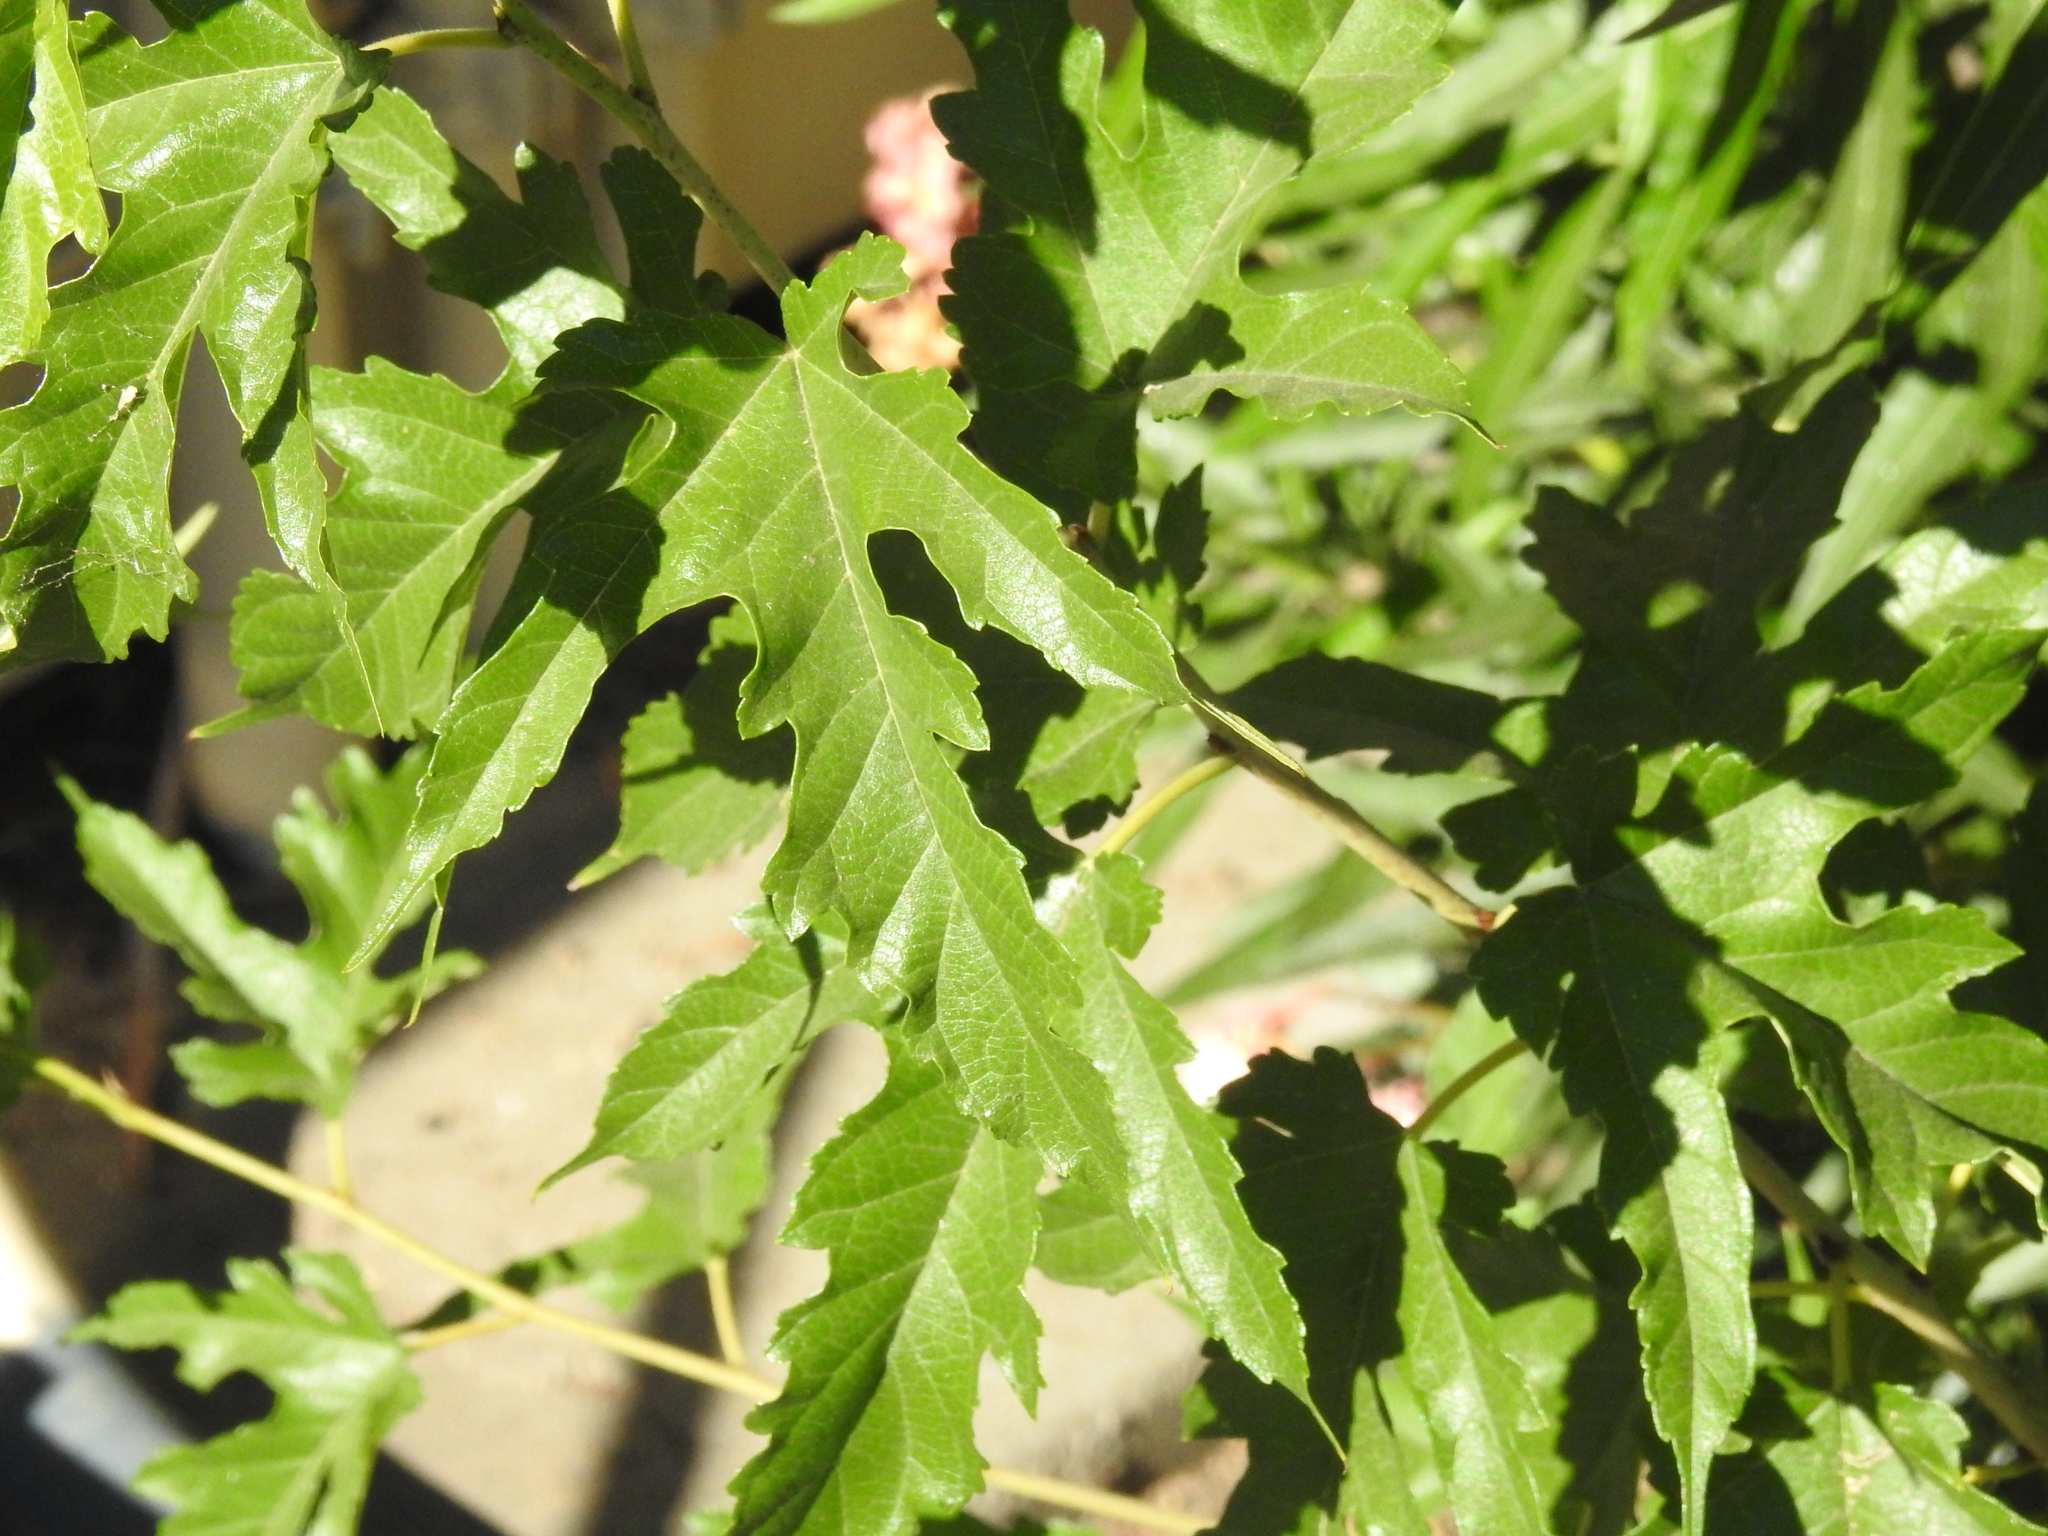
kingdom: Plantae
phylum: Tracheophyta
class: Magnoliopsida
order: Rosales
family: Moraceae
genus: Morus
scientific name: Morus indica
